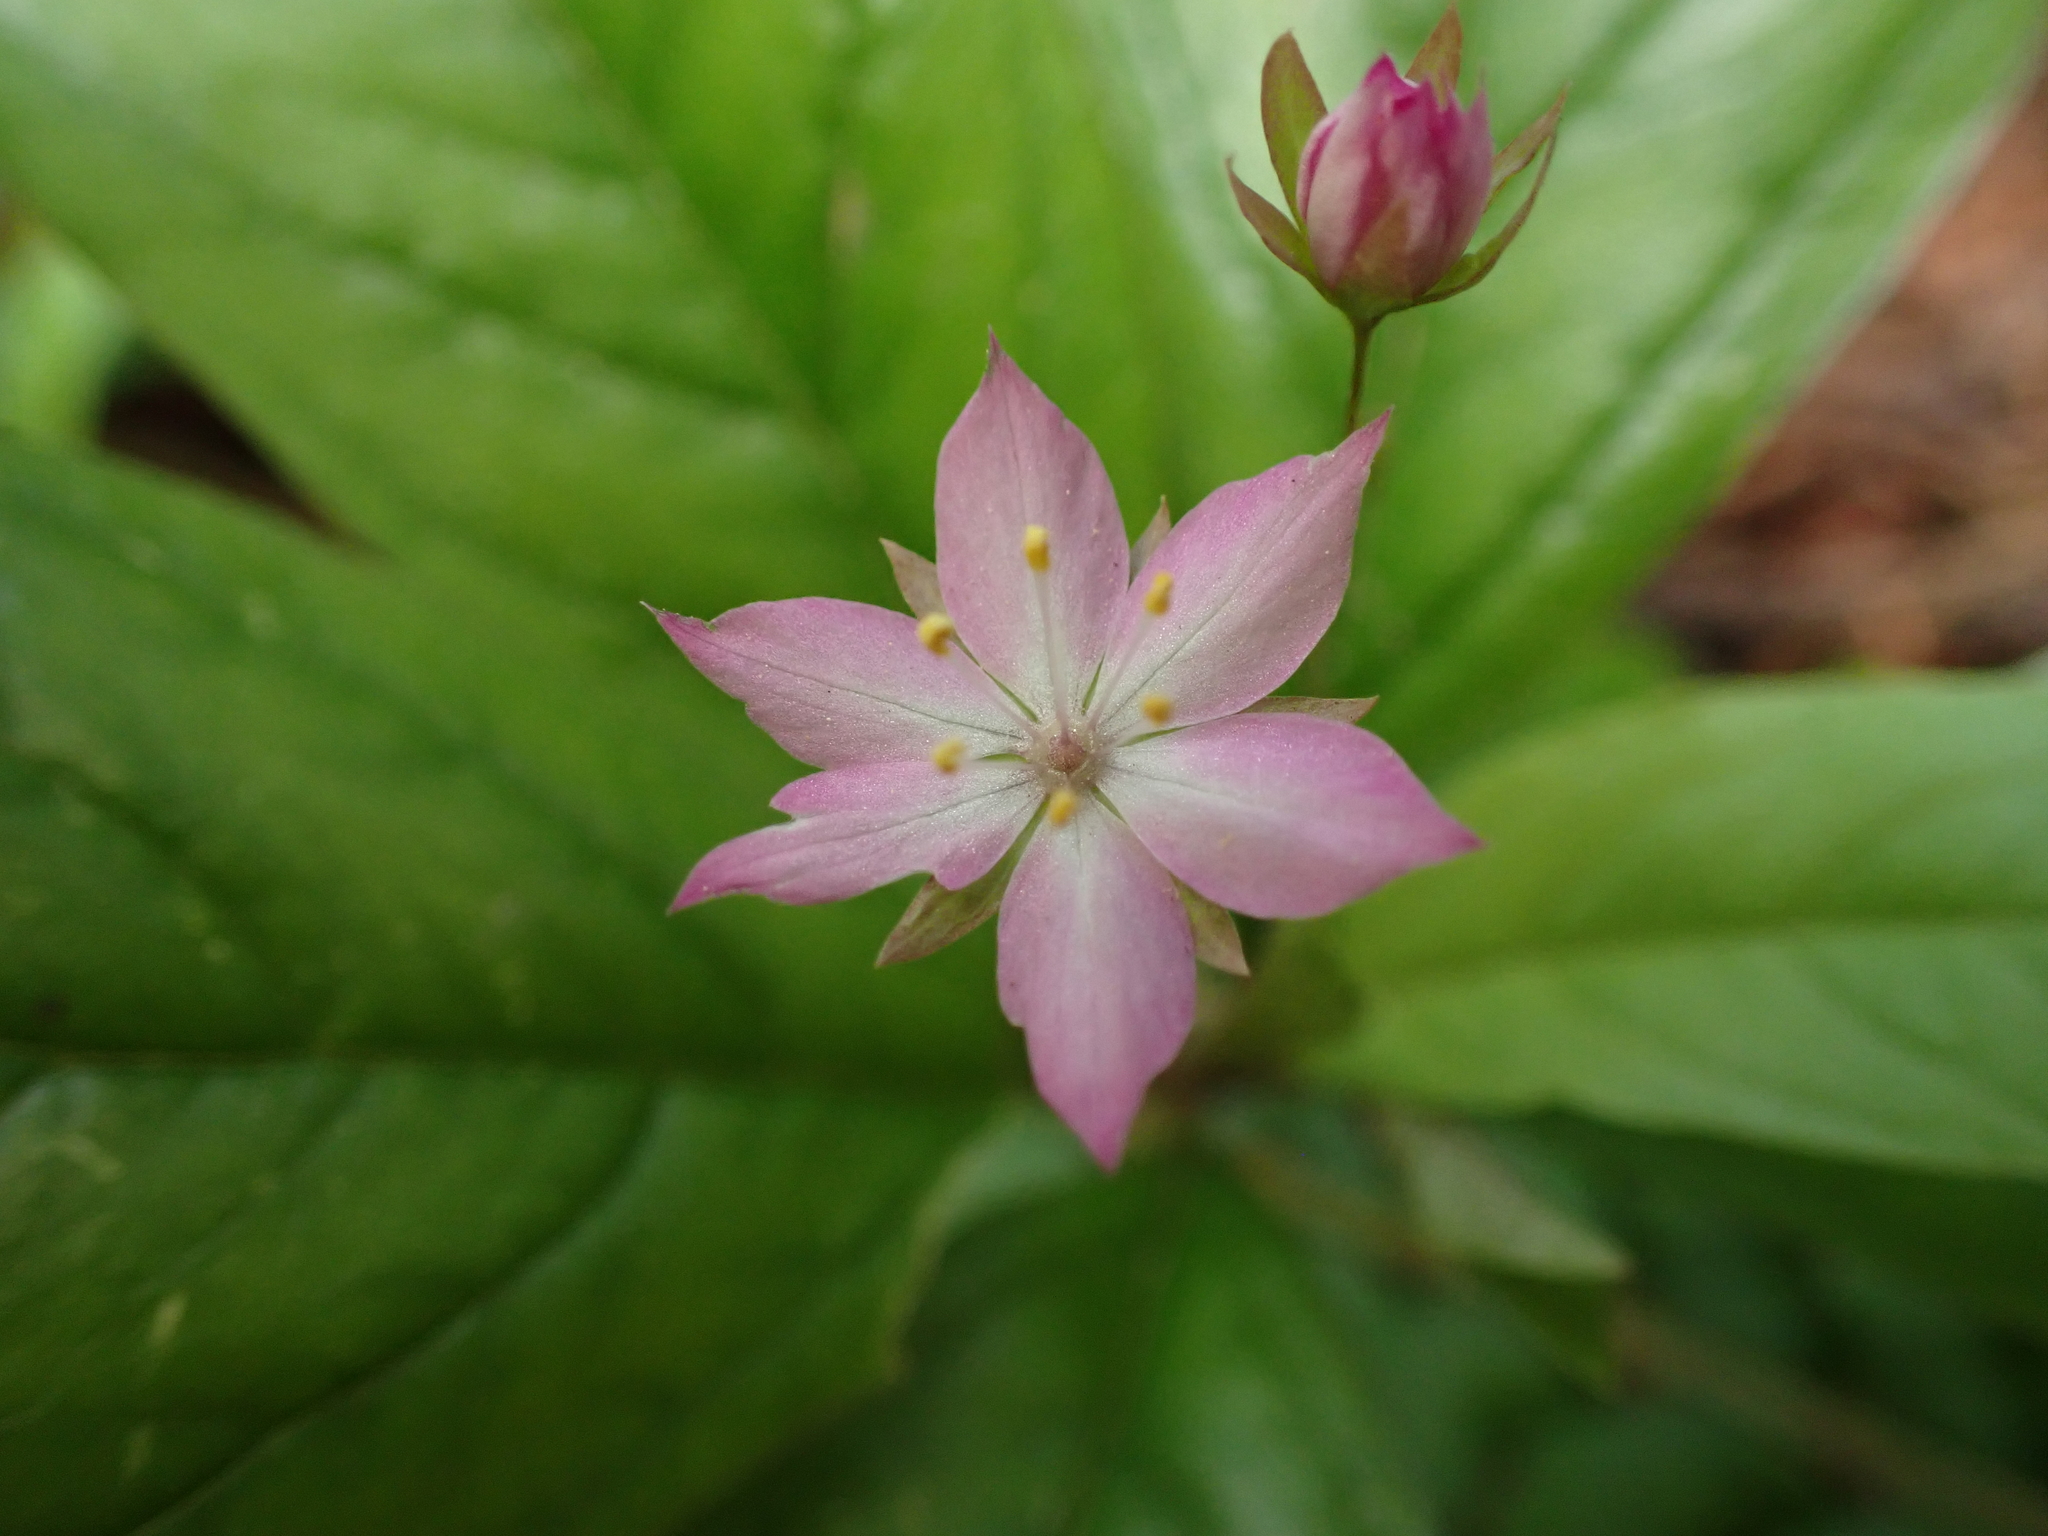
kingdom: Plantae
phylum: Tracheophyta
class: Magnoliopsida
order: Ericales
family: Primulaceae
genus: Lysimachia
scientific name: Lysimachia latifolia
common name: Pacific starflower
